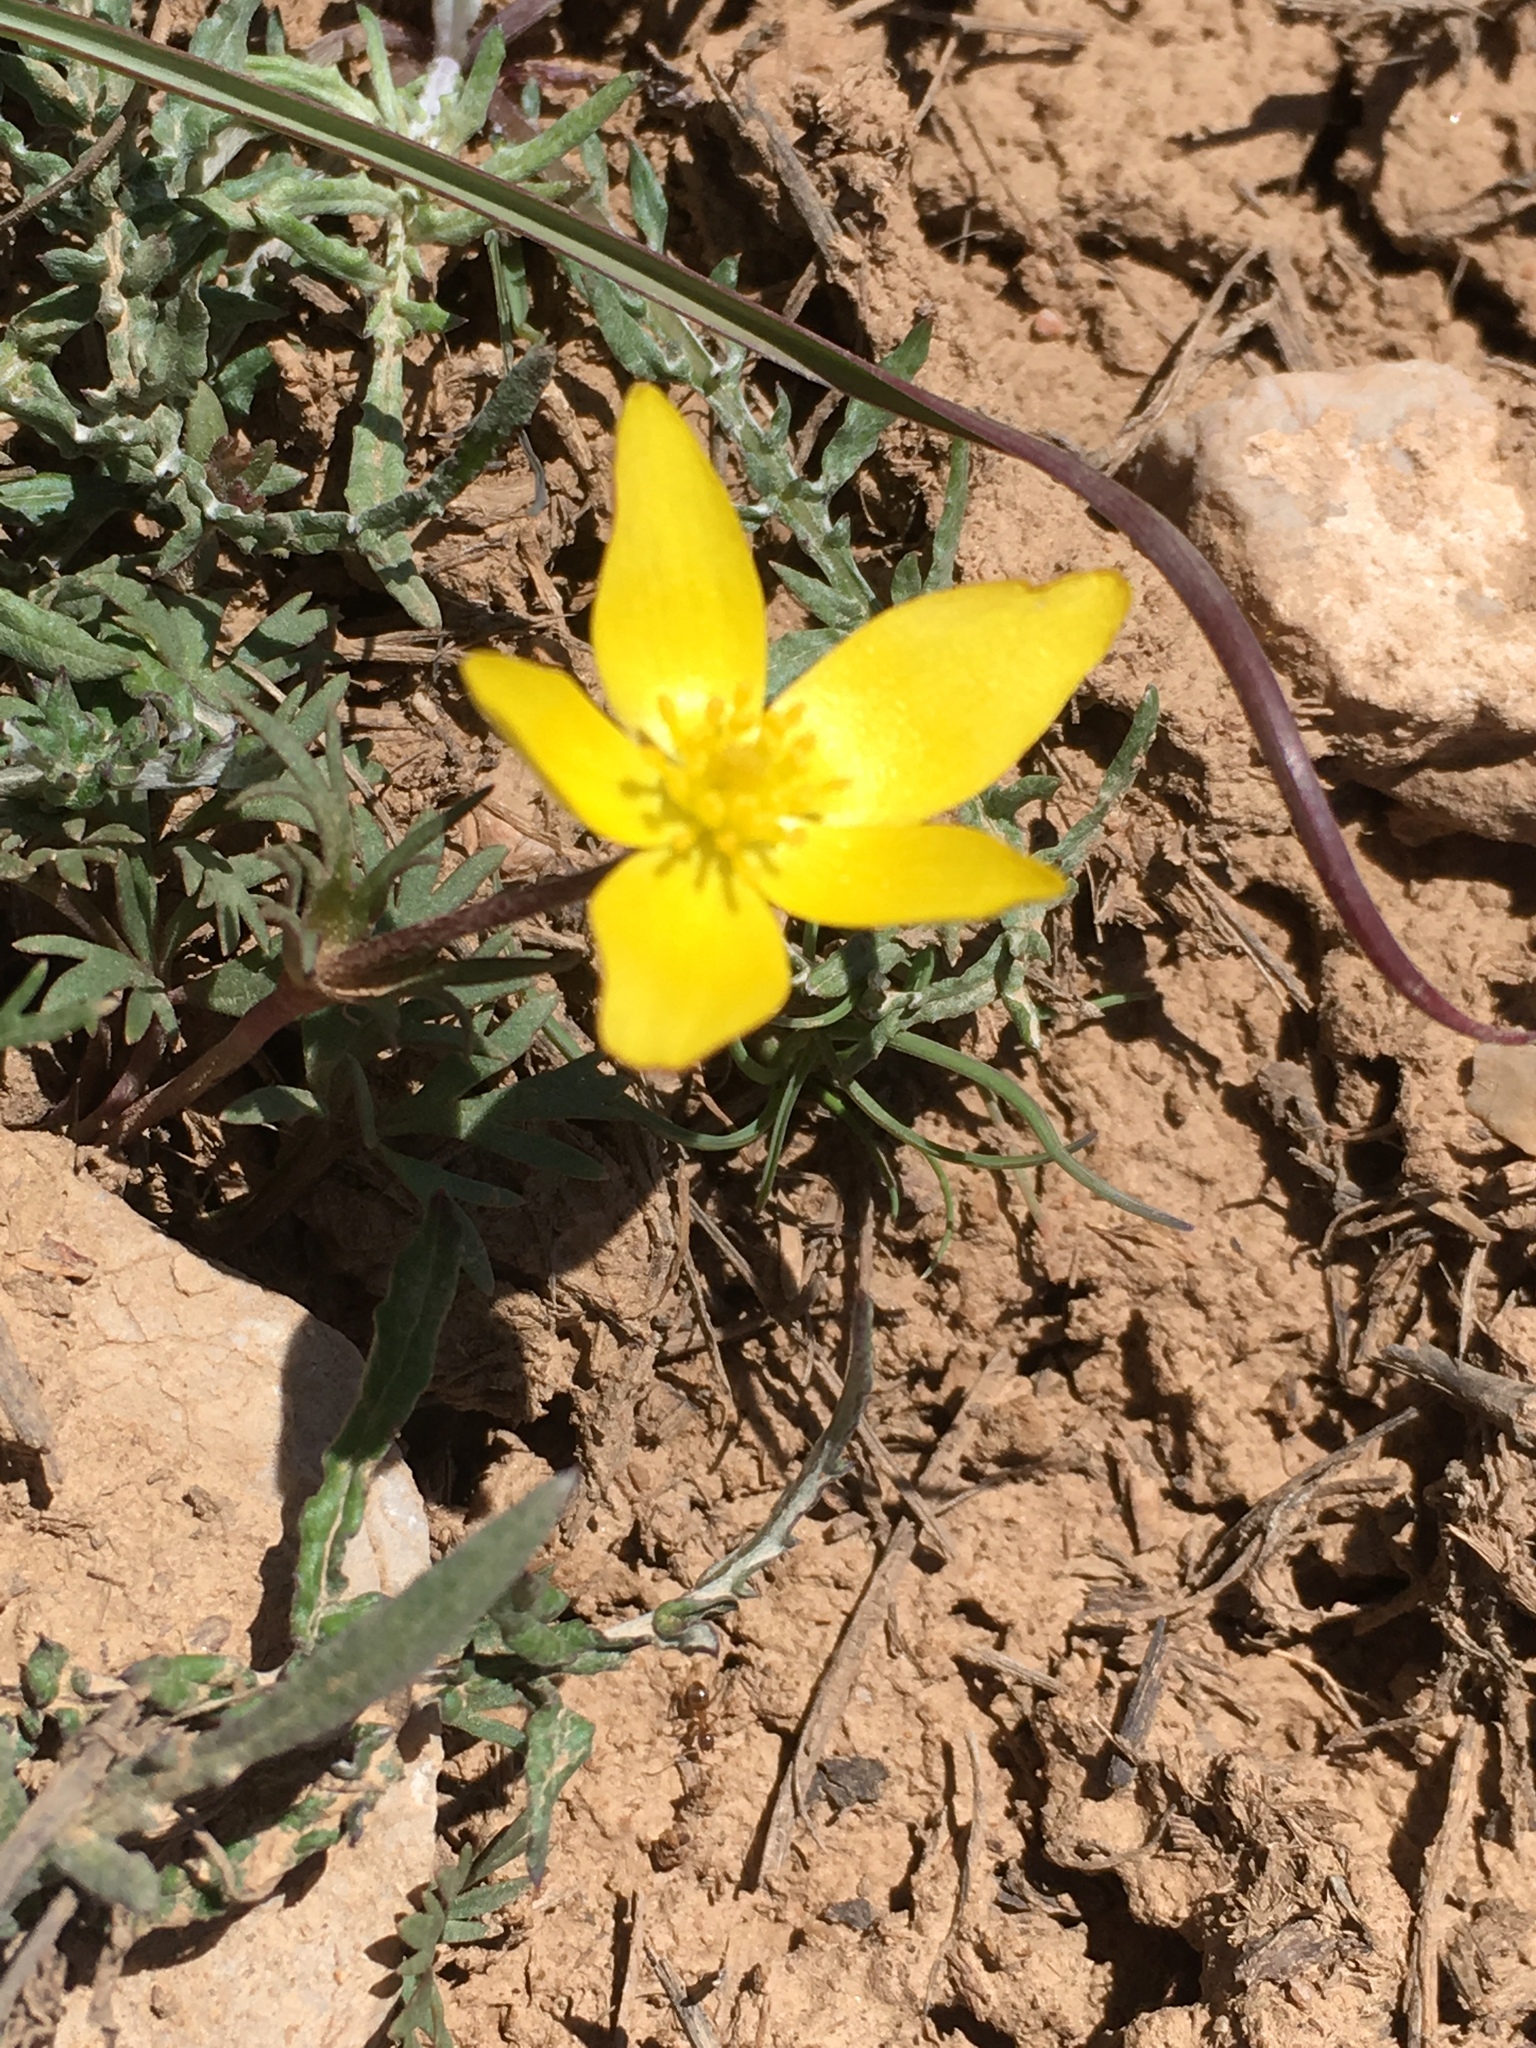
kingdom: Plantae
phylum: Tracheophyta
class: Magnoliopsida
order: Ranunculales
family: Ranunculaceae
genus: Anemone
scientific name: Anemone biflora
